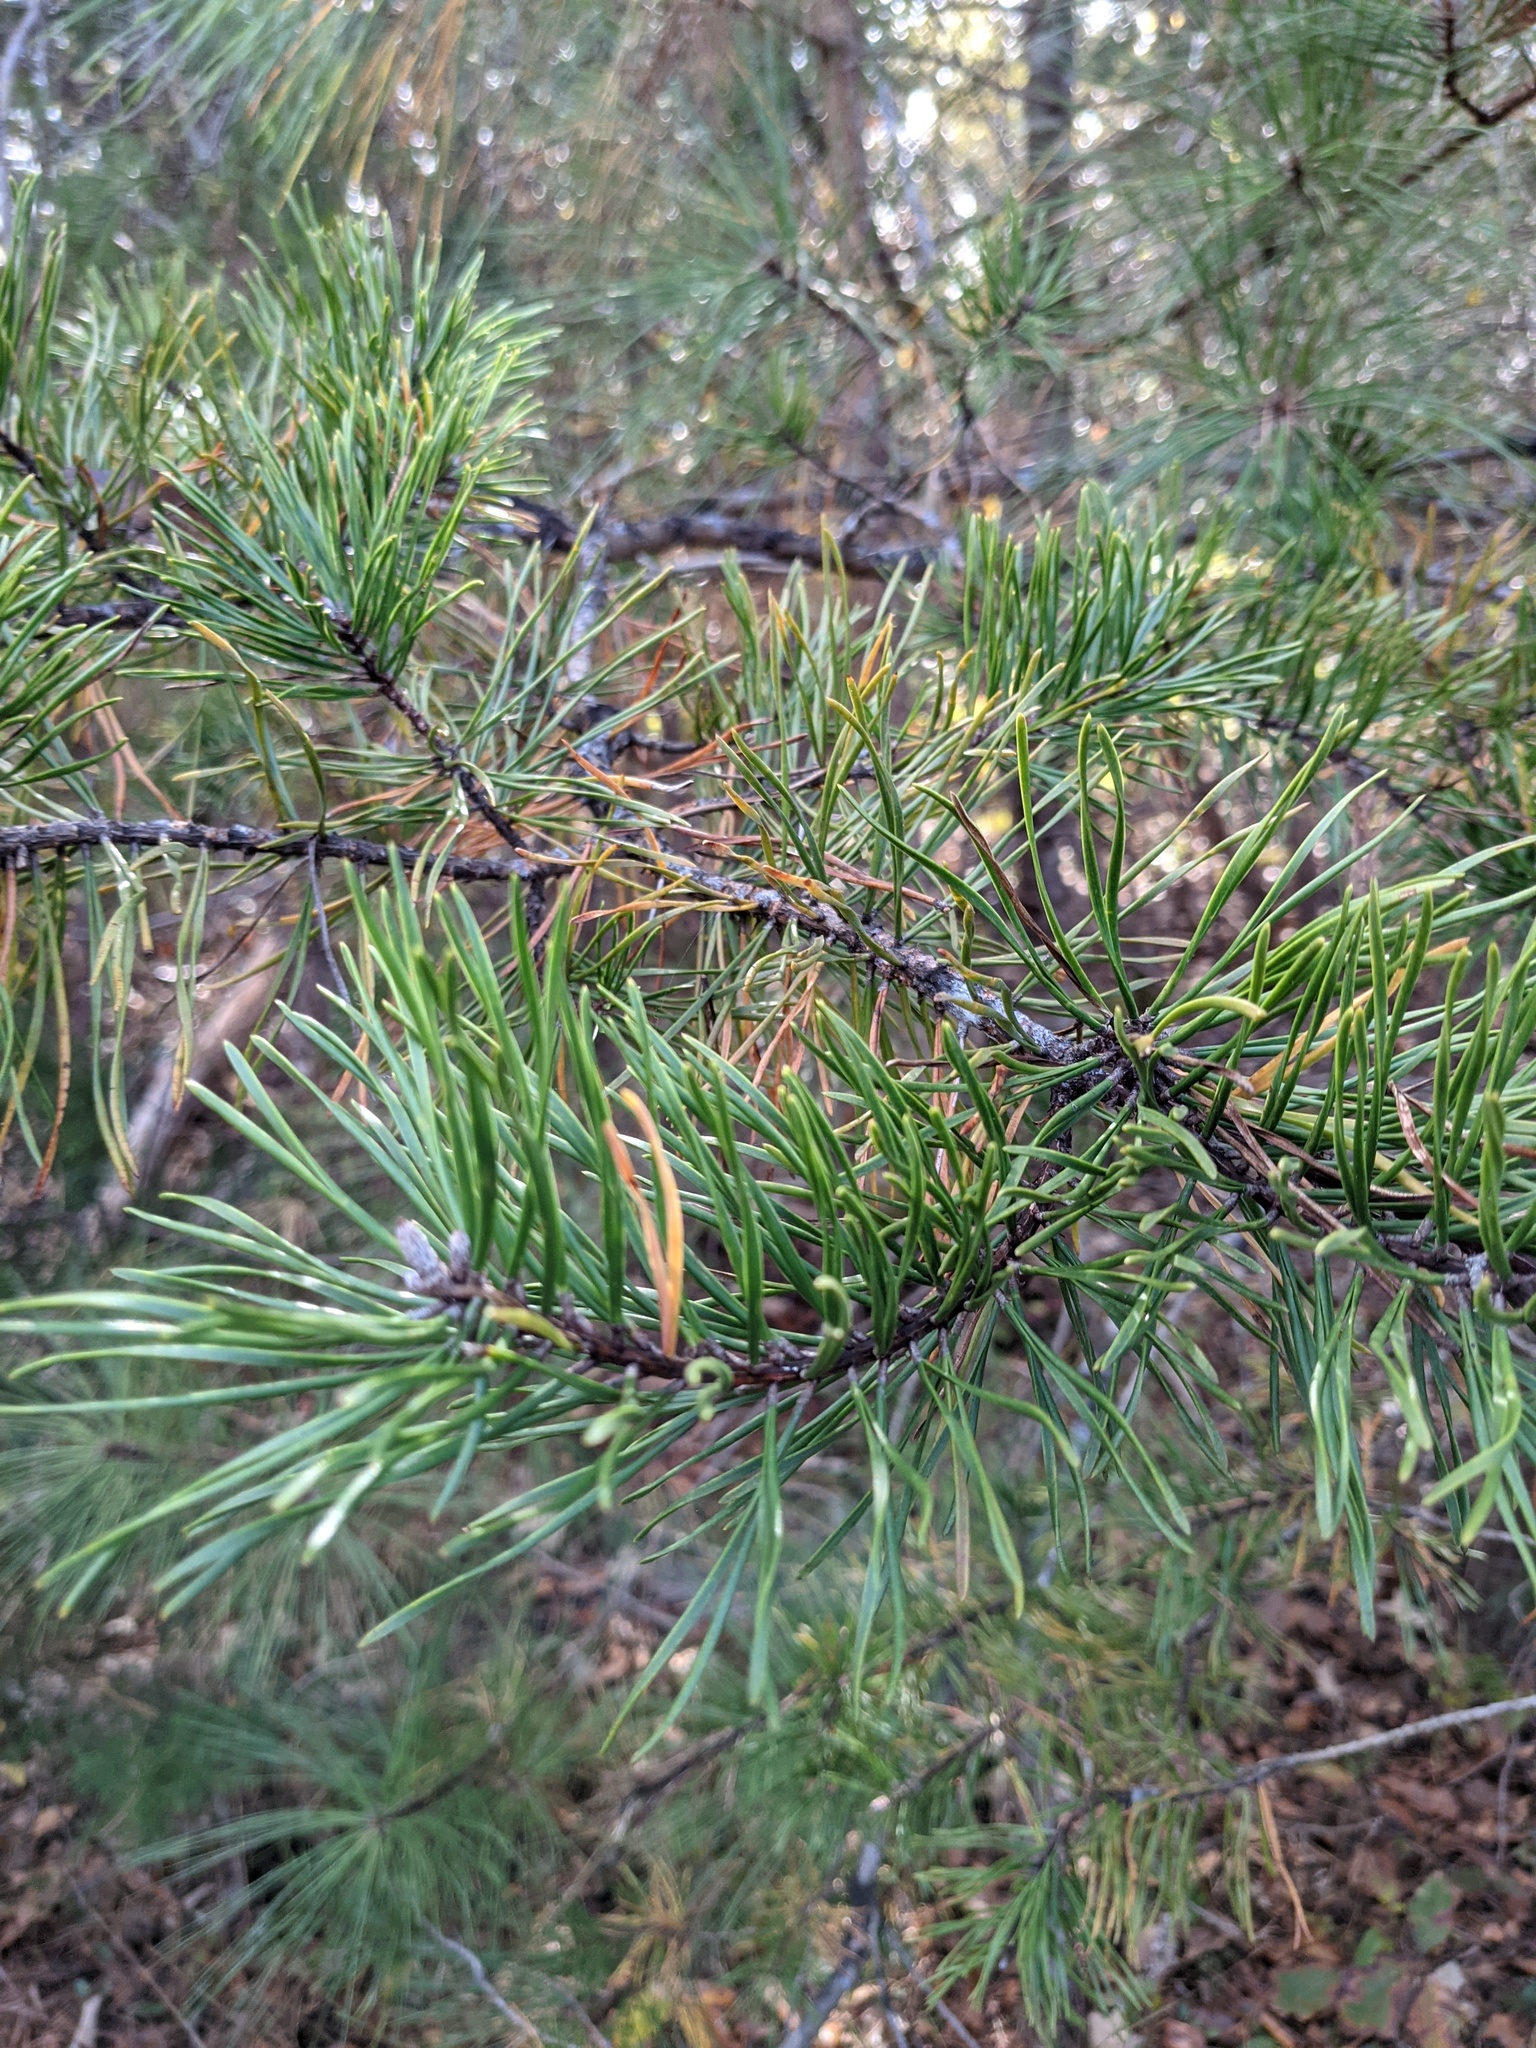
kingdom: Plantae
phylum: Tracheophyta
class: Pinopsida
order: Pinales
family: Pinaceae
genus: Pinus
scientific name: Pinus virginiana
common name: Scrub pine
